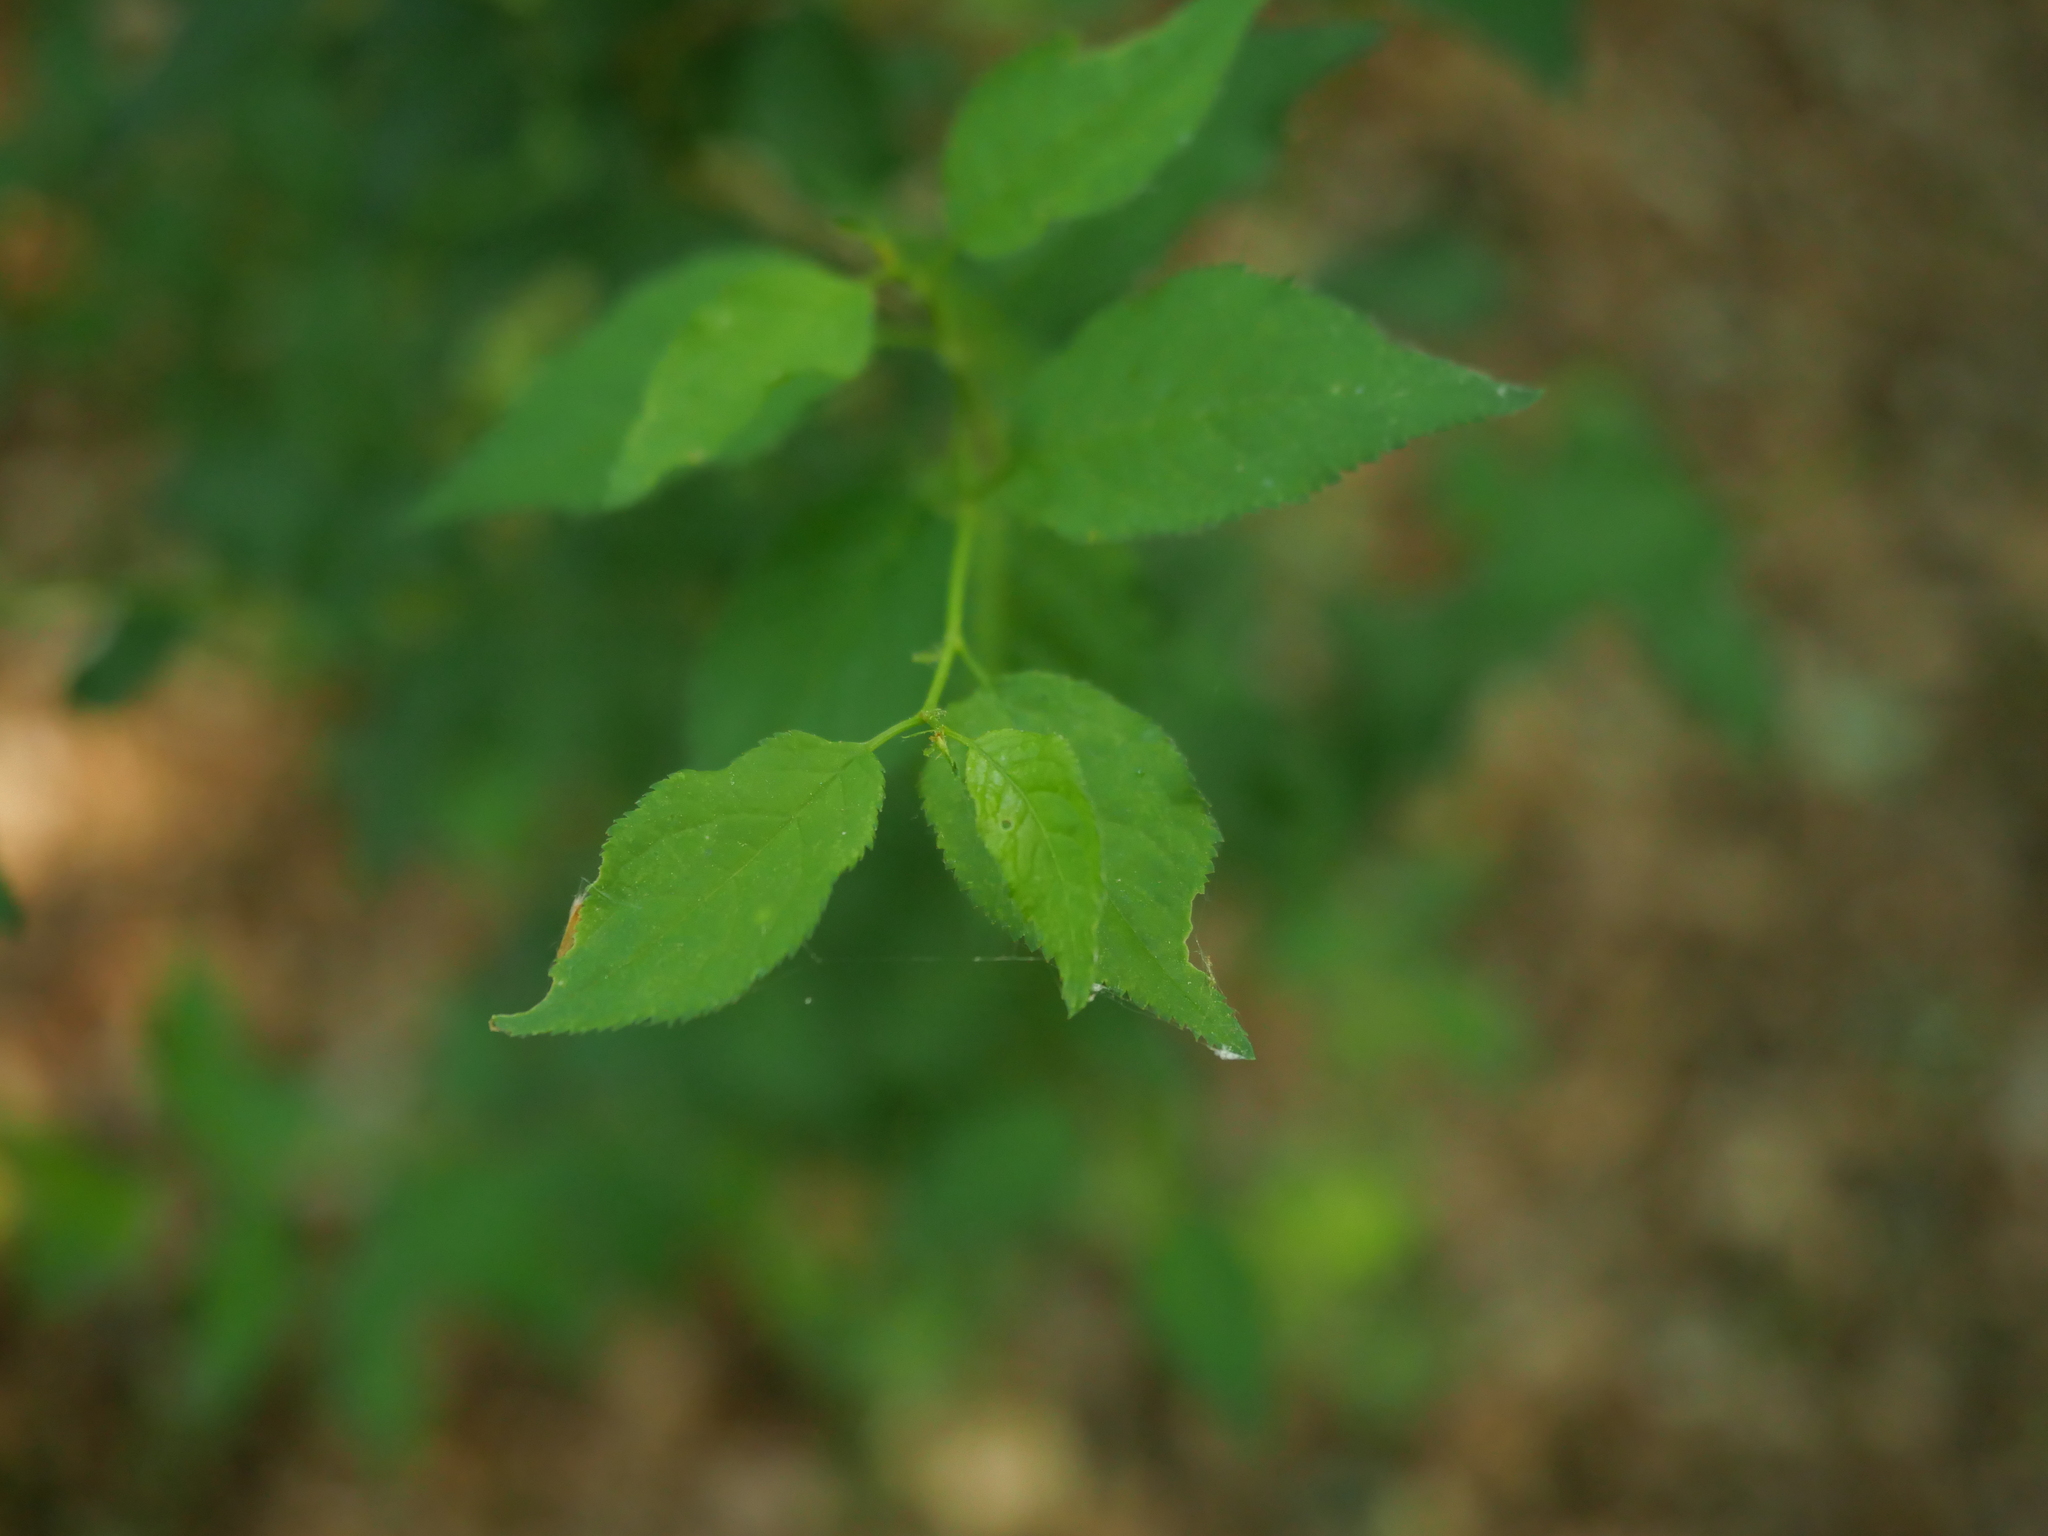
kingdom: Plantae
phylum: Tracheophyta
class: Magnoliopsida
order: Rosales
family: Rosaceae
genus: Prunus
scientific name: Prunus cerasifera
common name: Cherry plum
